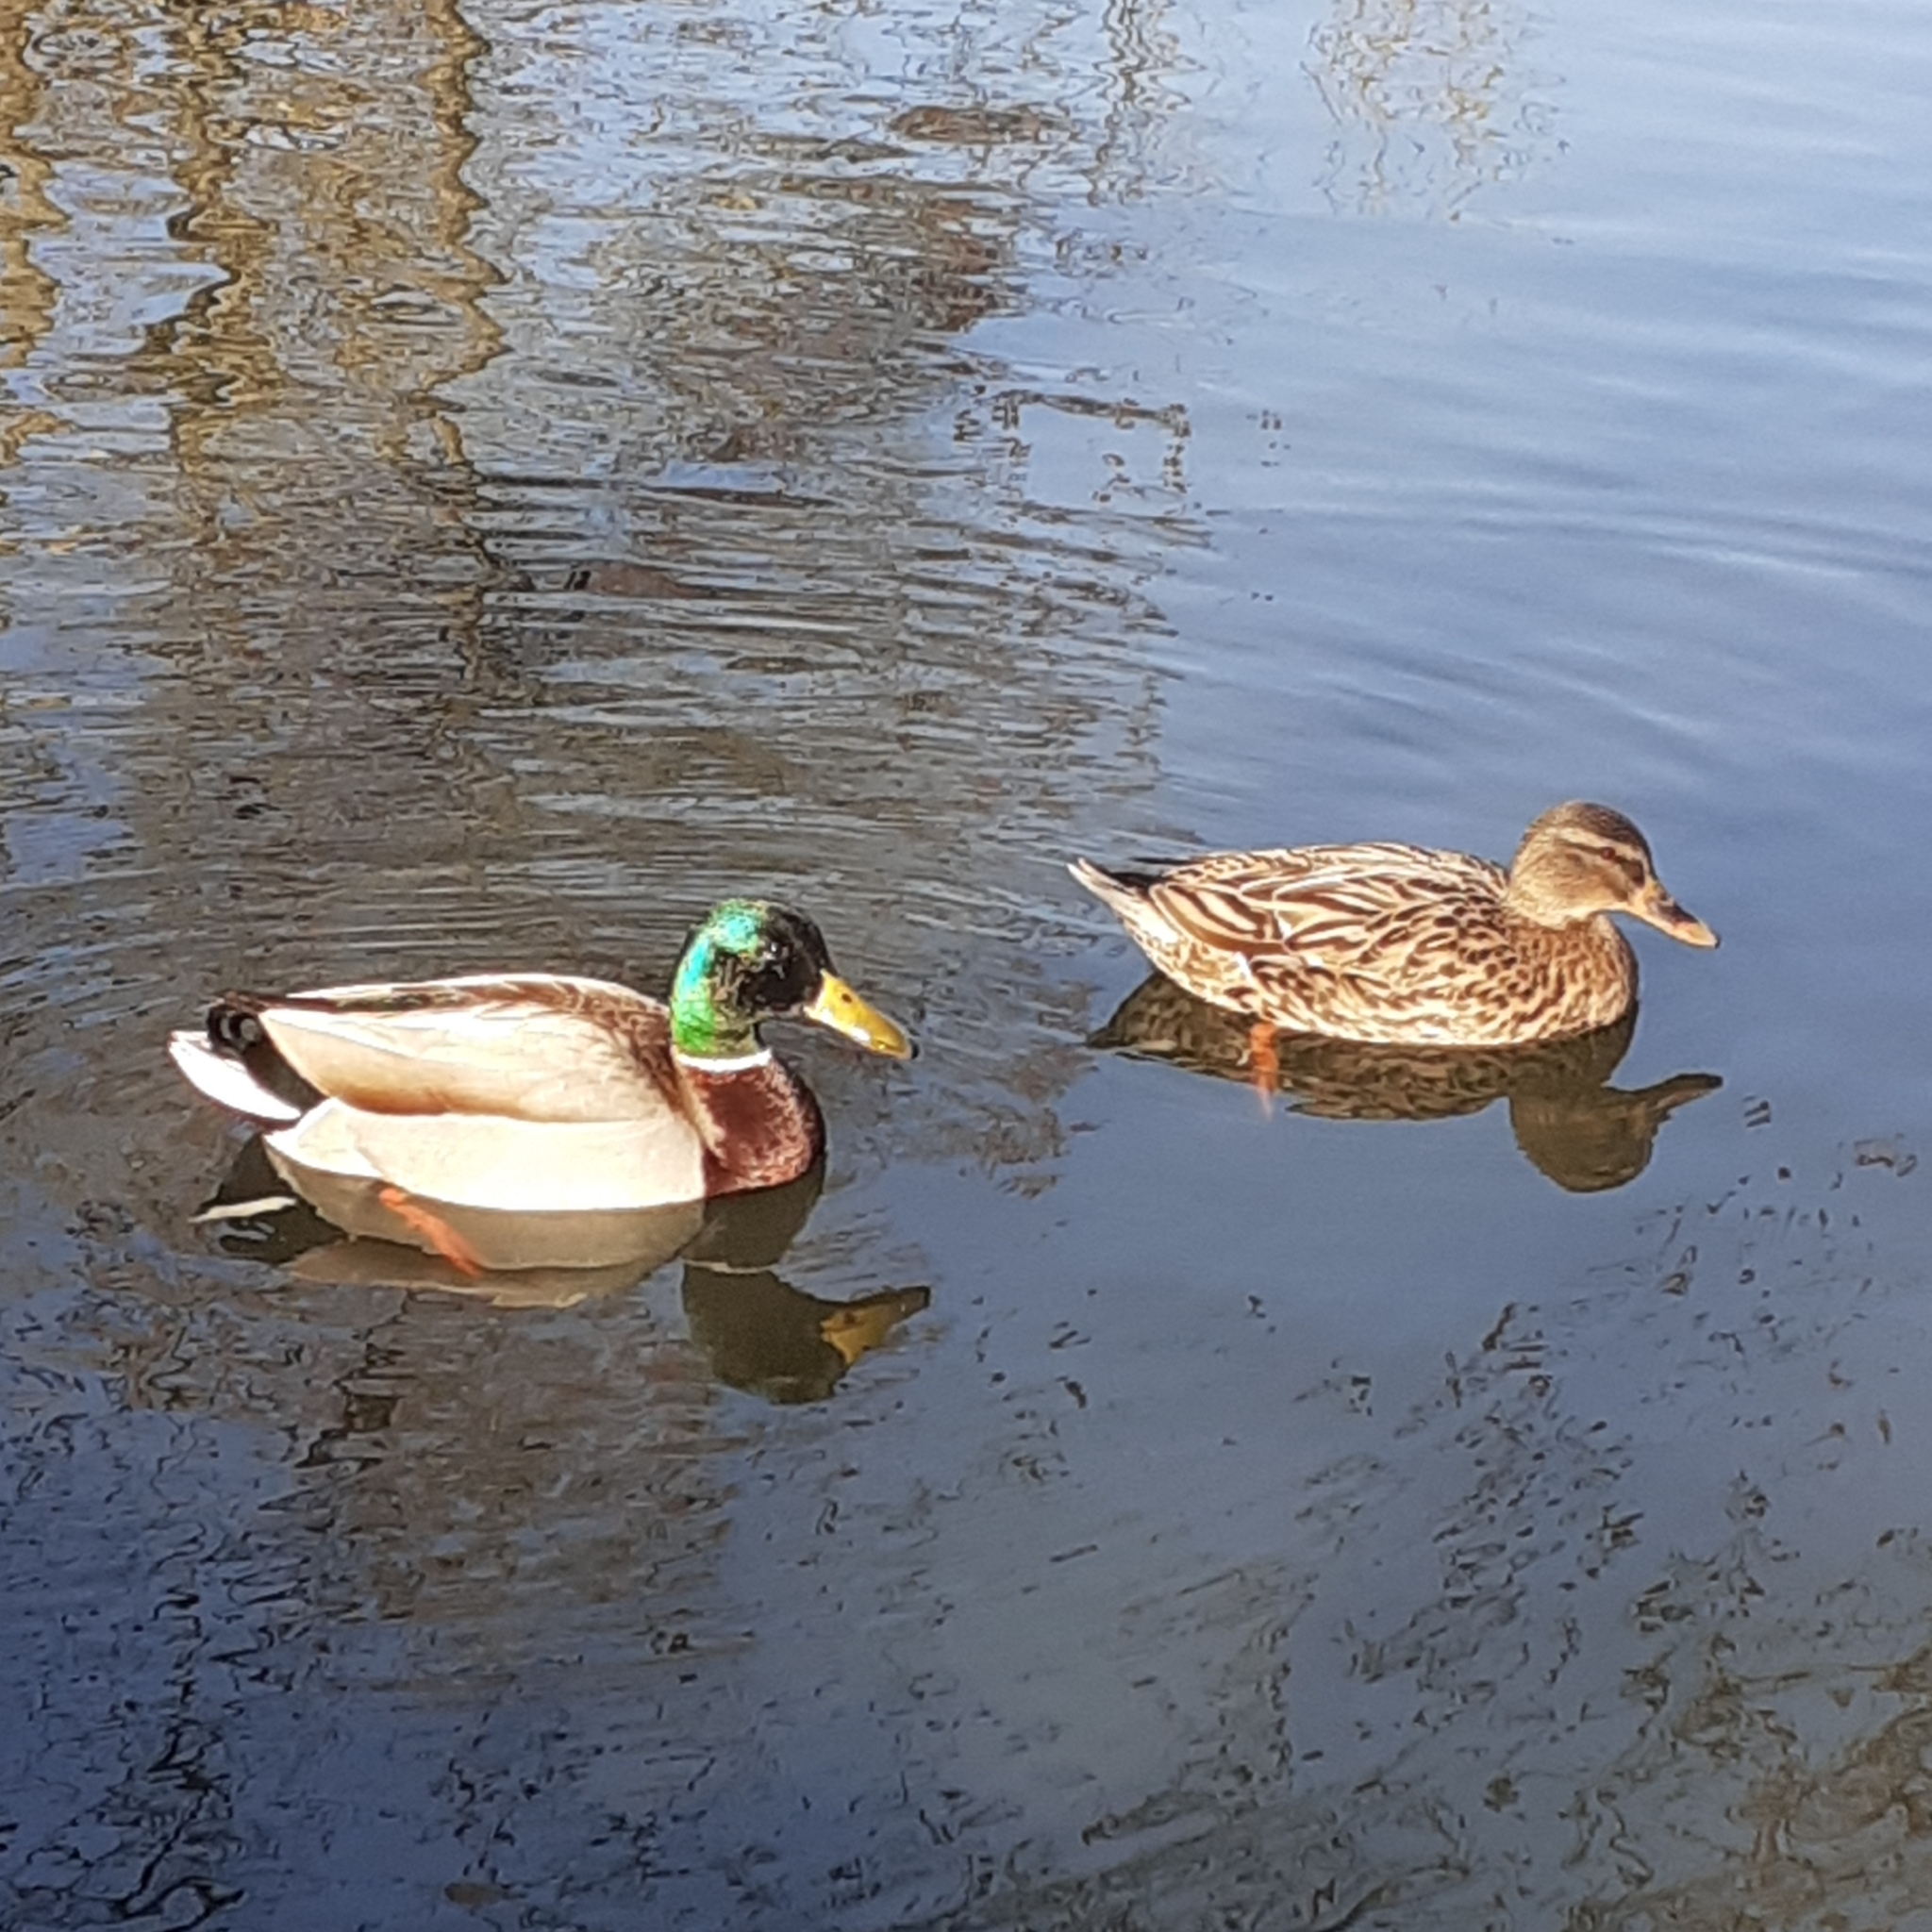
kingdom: Animalia
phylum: Chordata
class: Aves
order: Anseriformes
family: Anatidae
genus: Anas
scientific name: Anas platyrhynchos
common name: Mallard
